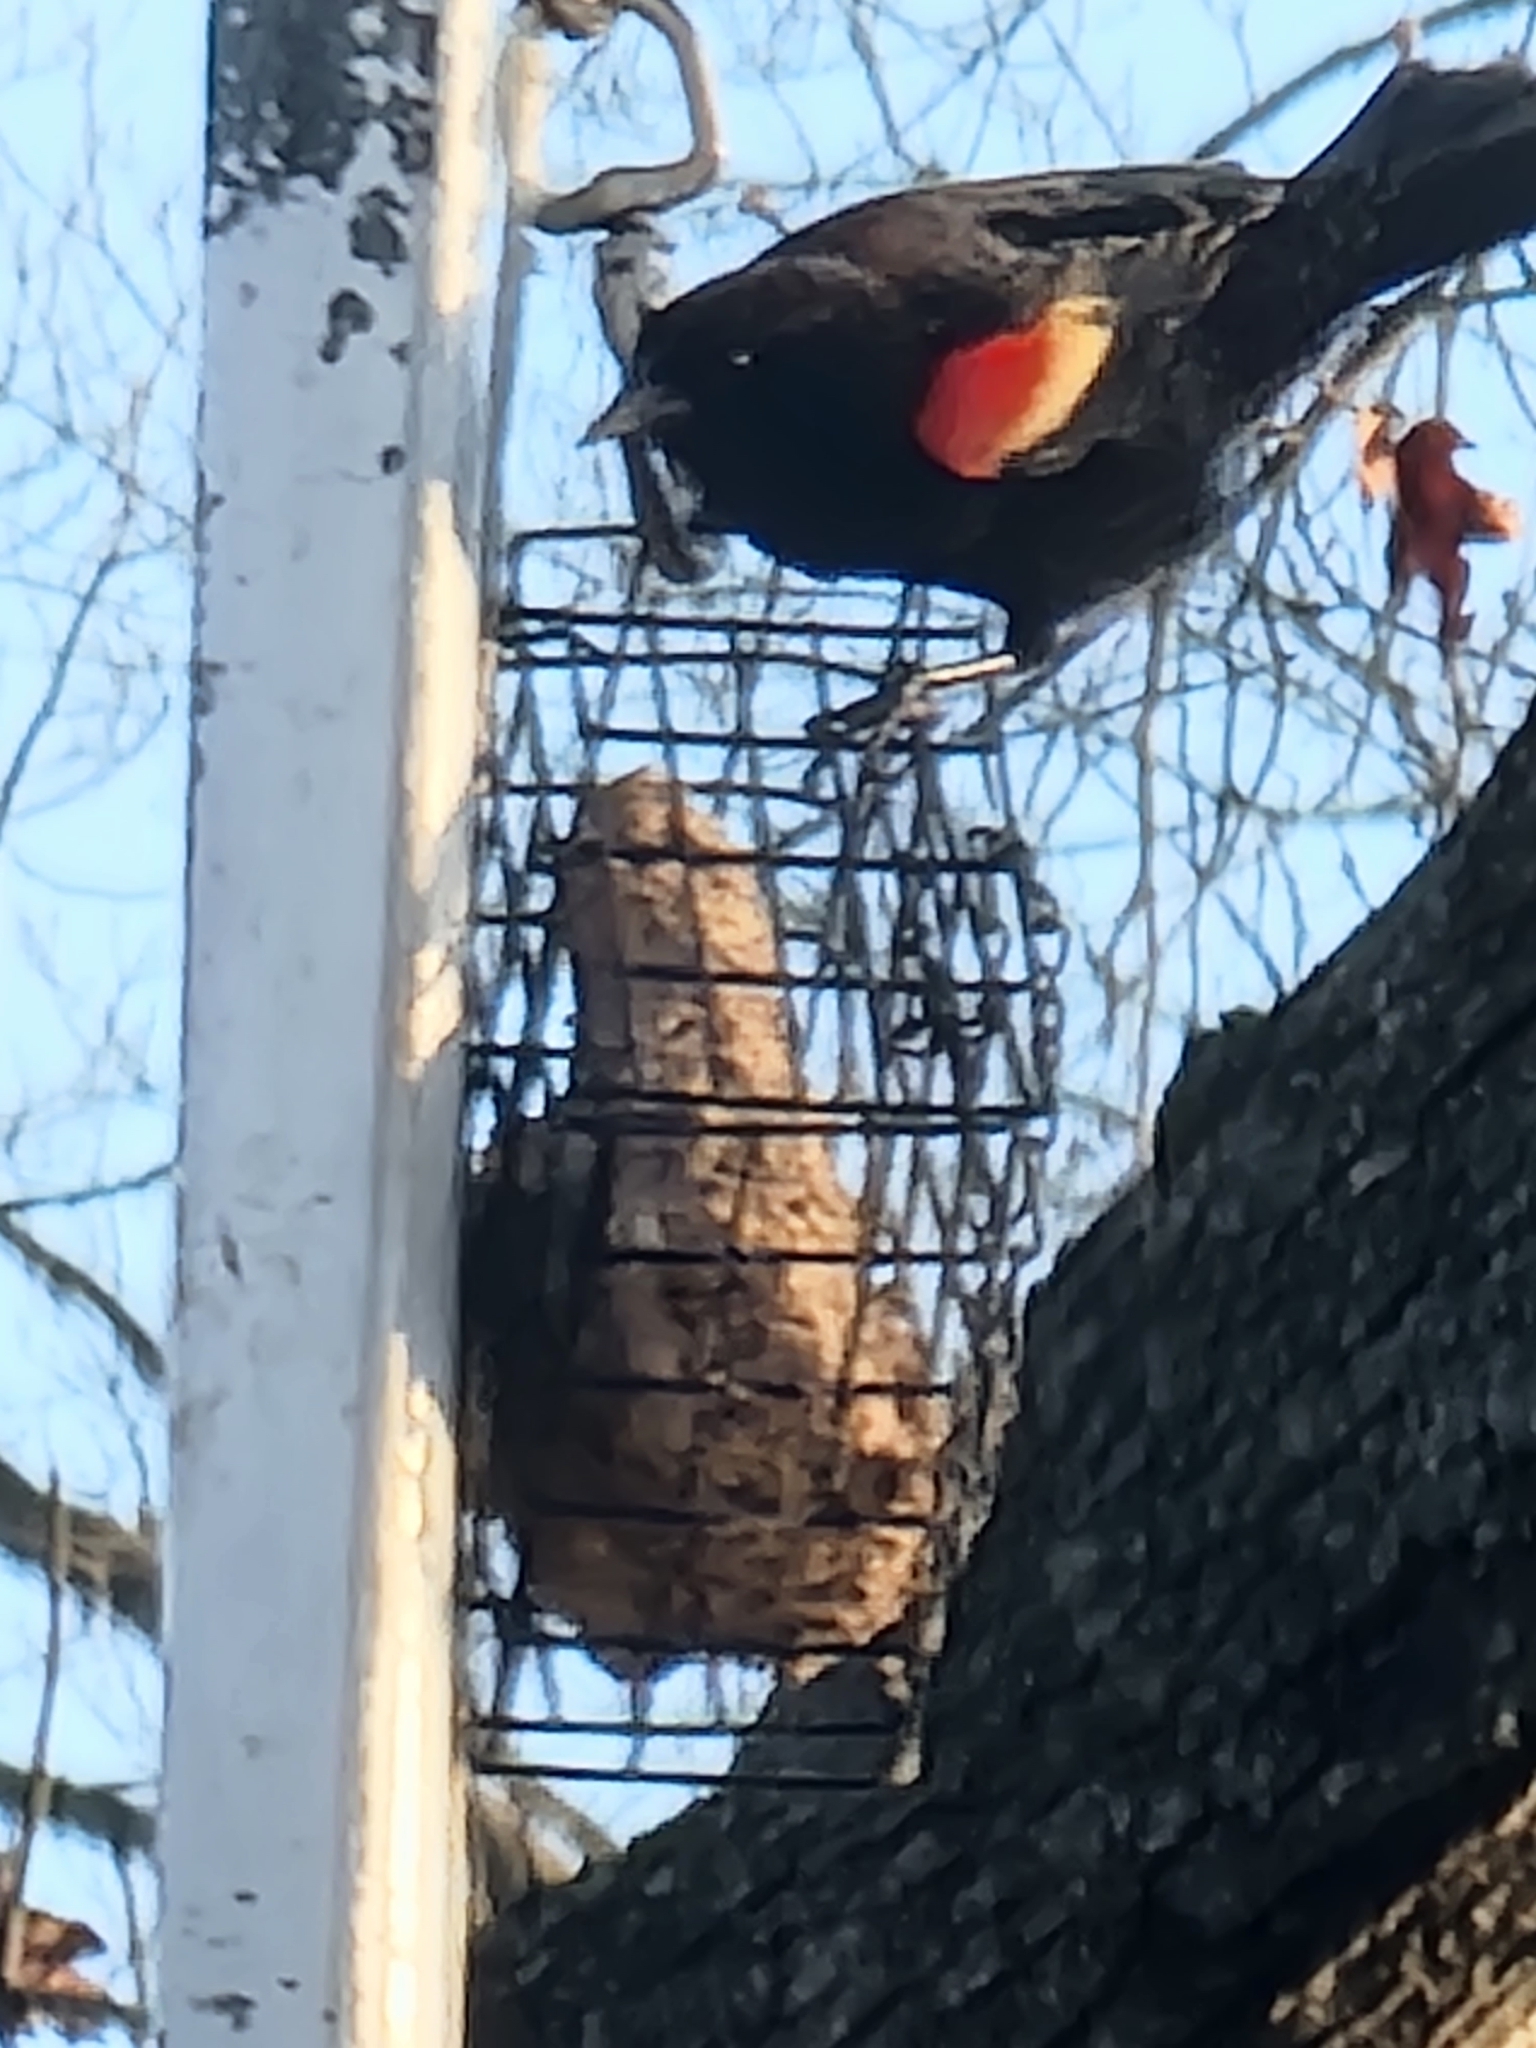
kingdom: Animalia
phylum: Chordata
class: Aves
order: Passeriformes
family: Icteridae
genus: Agelaius
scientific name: Agelaius phoeniceus
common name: Red-winged blackbird
